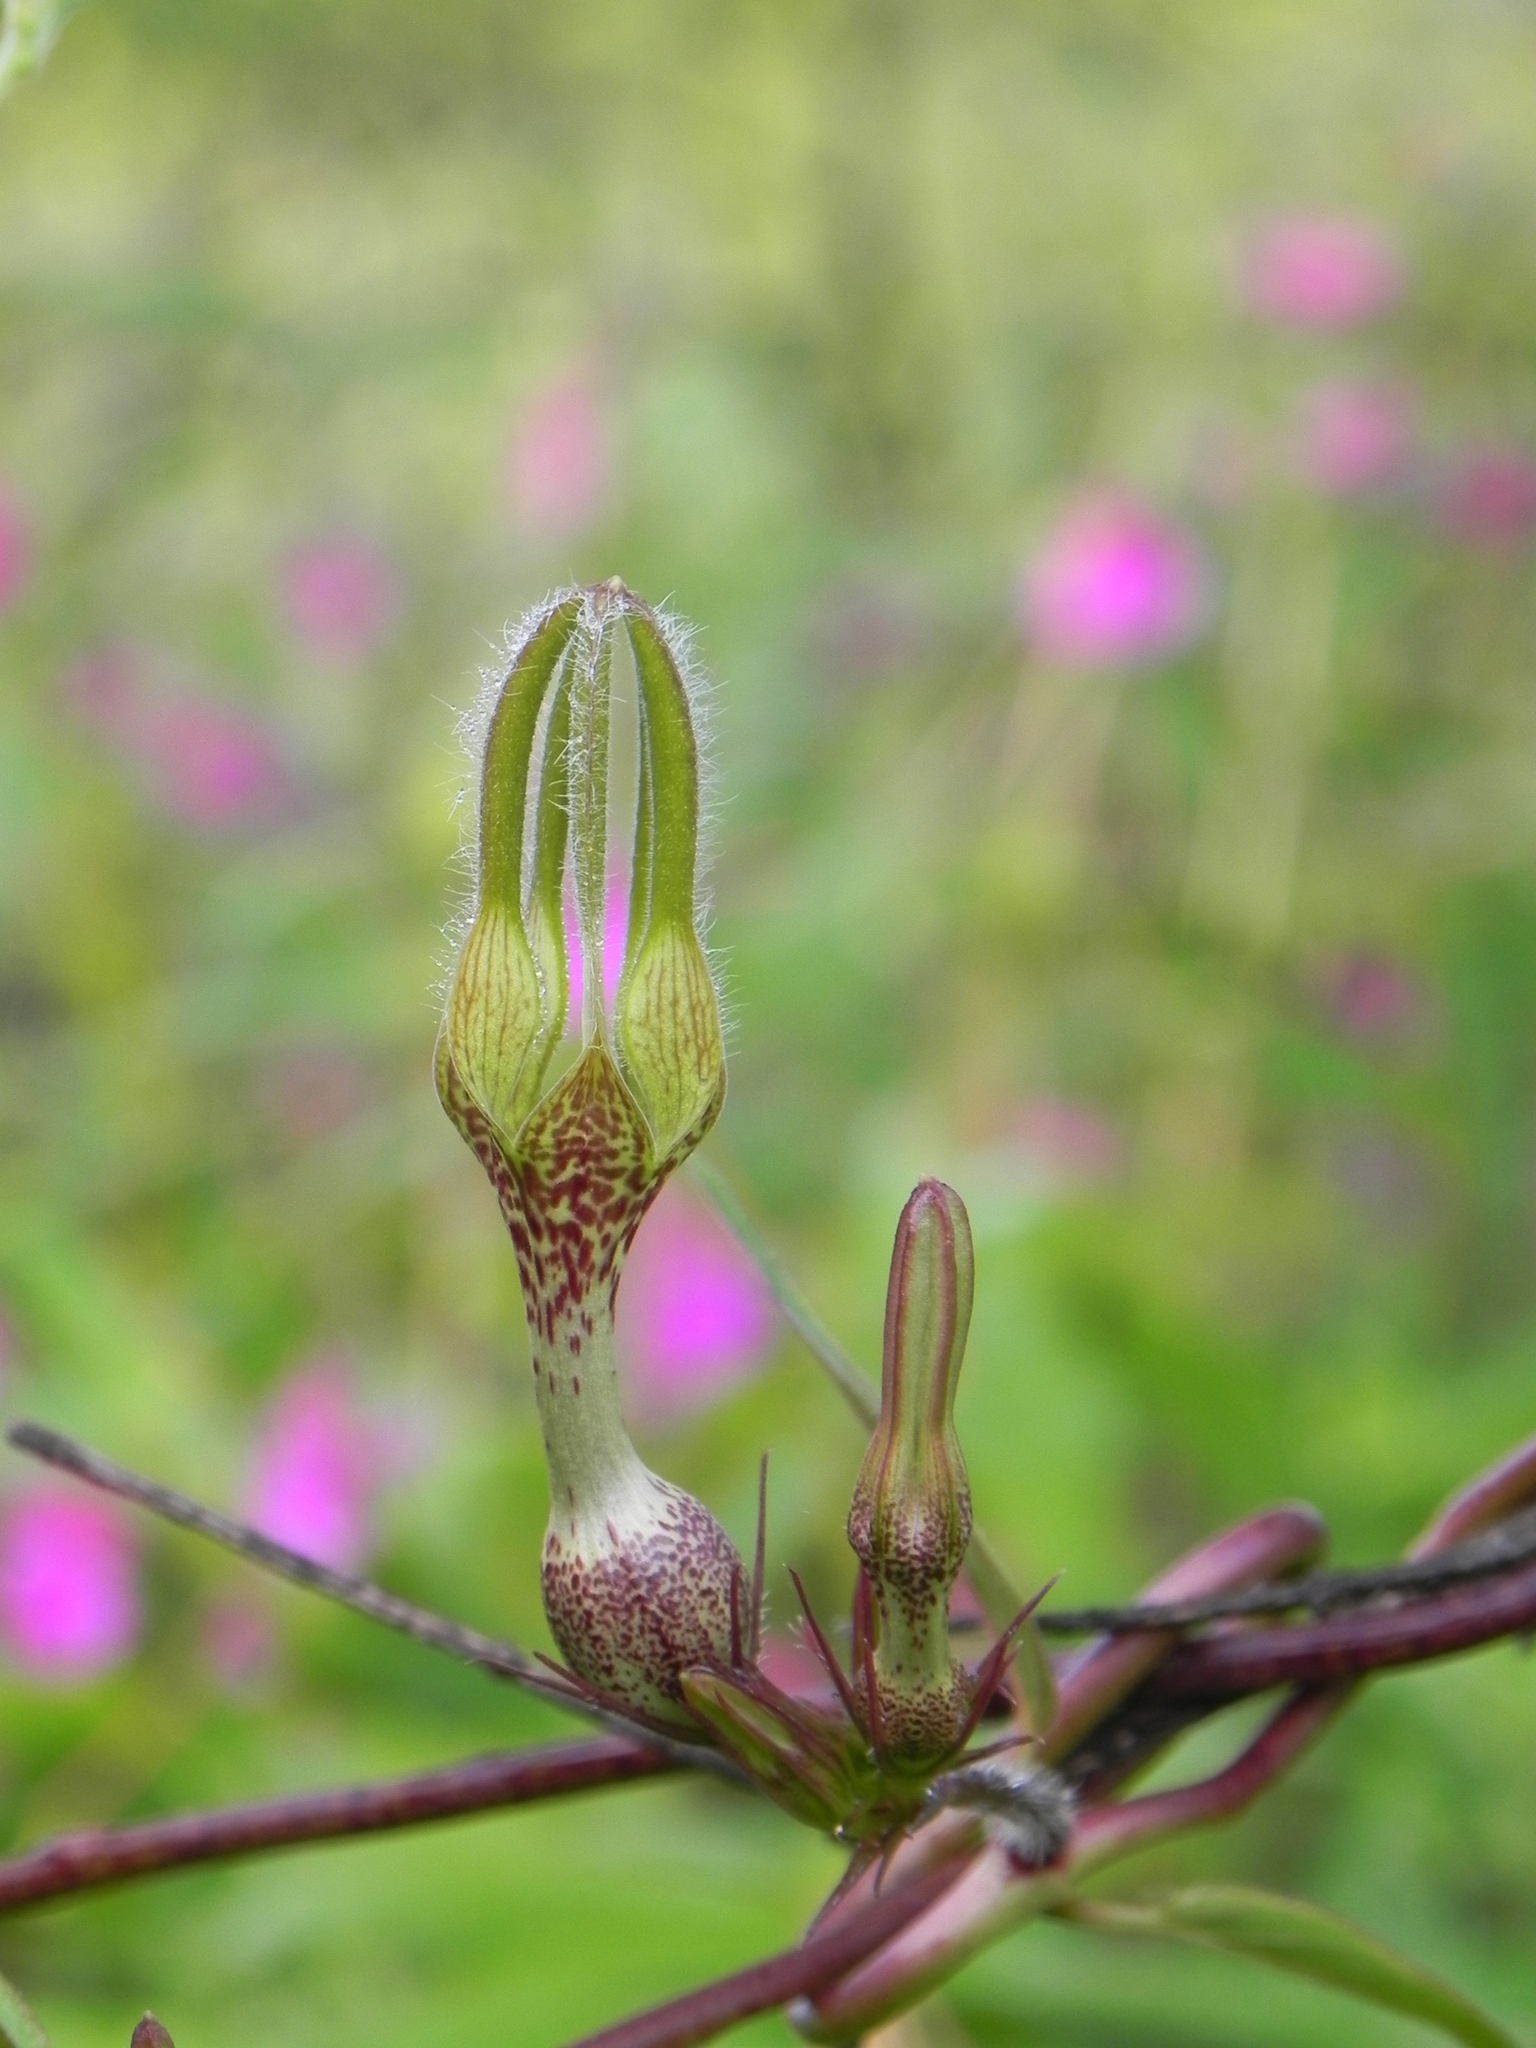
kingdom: Plantae
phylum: Tracheophyta
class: Magnoliopsida
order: Gentianales
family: Apocynaceae
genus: Ceropegia
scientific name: Ceropegia vincifolia
